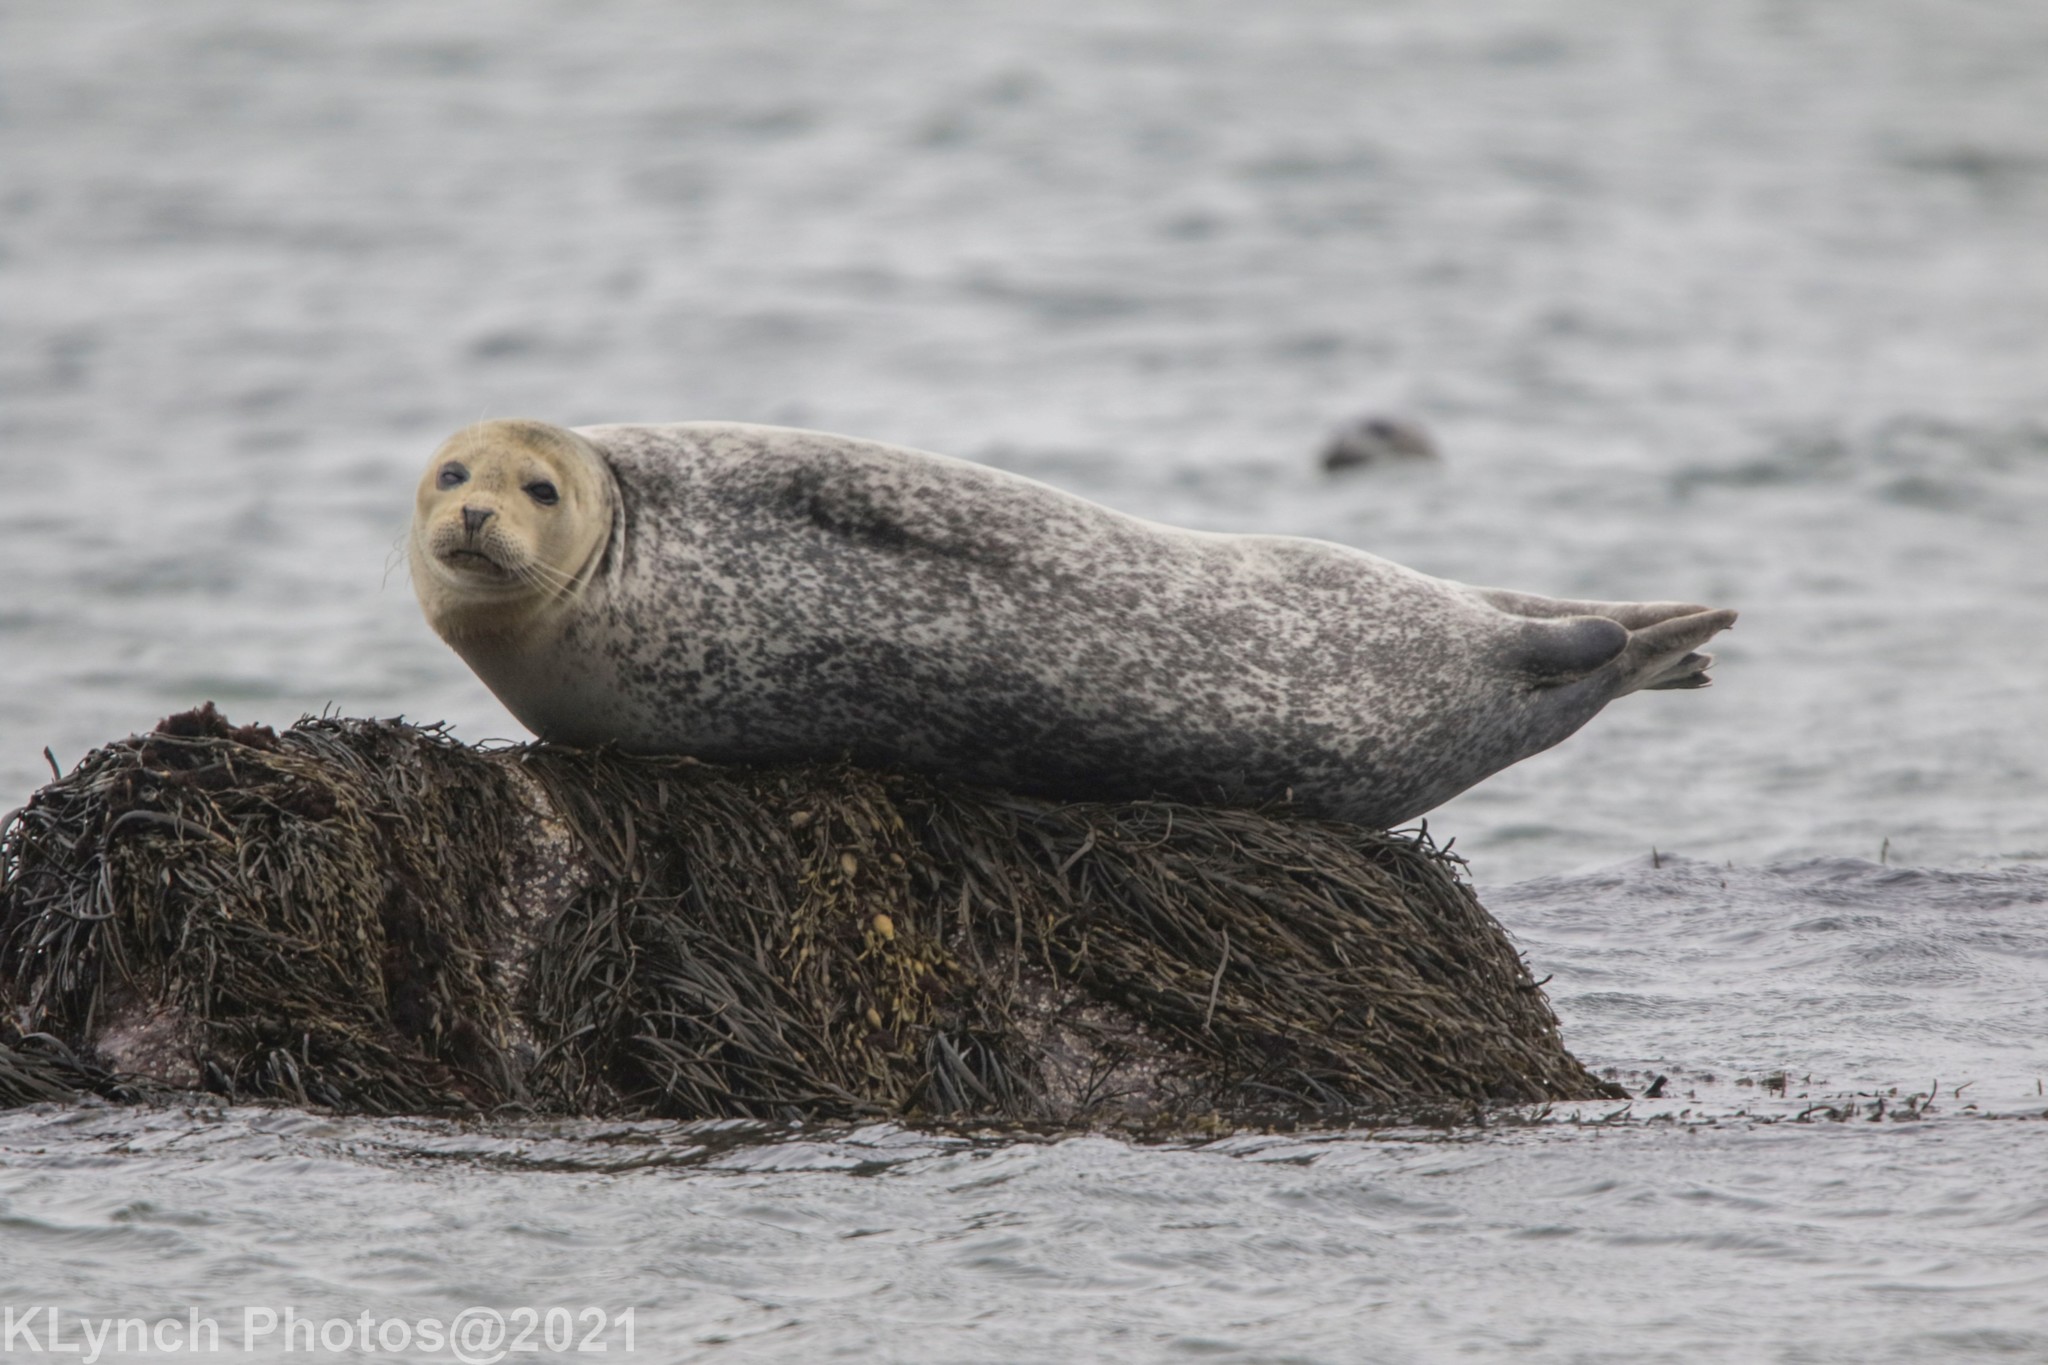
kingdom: Animalia
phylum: Chordata
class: Mammalia
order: Carnivora
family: Phocidae
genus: Phoca
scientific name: Phoca vitulina
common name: Harbor seal
